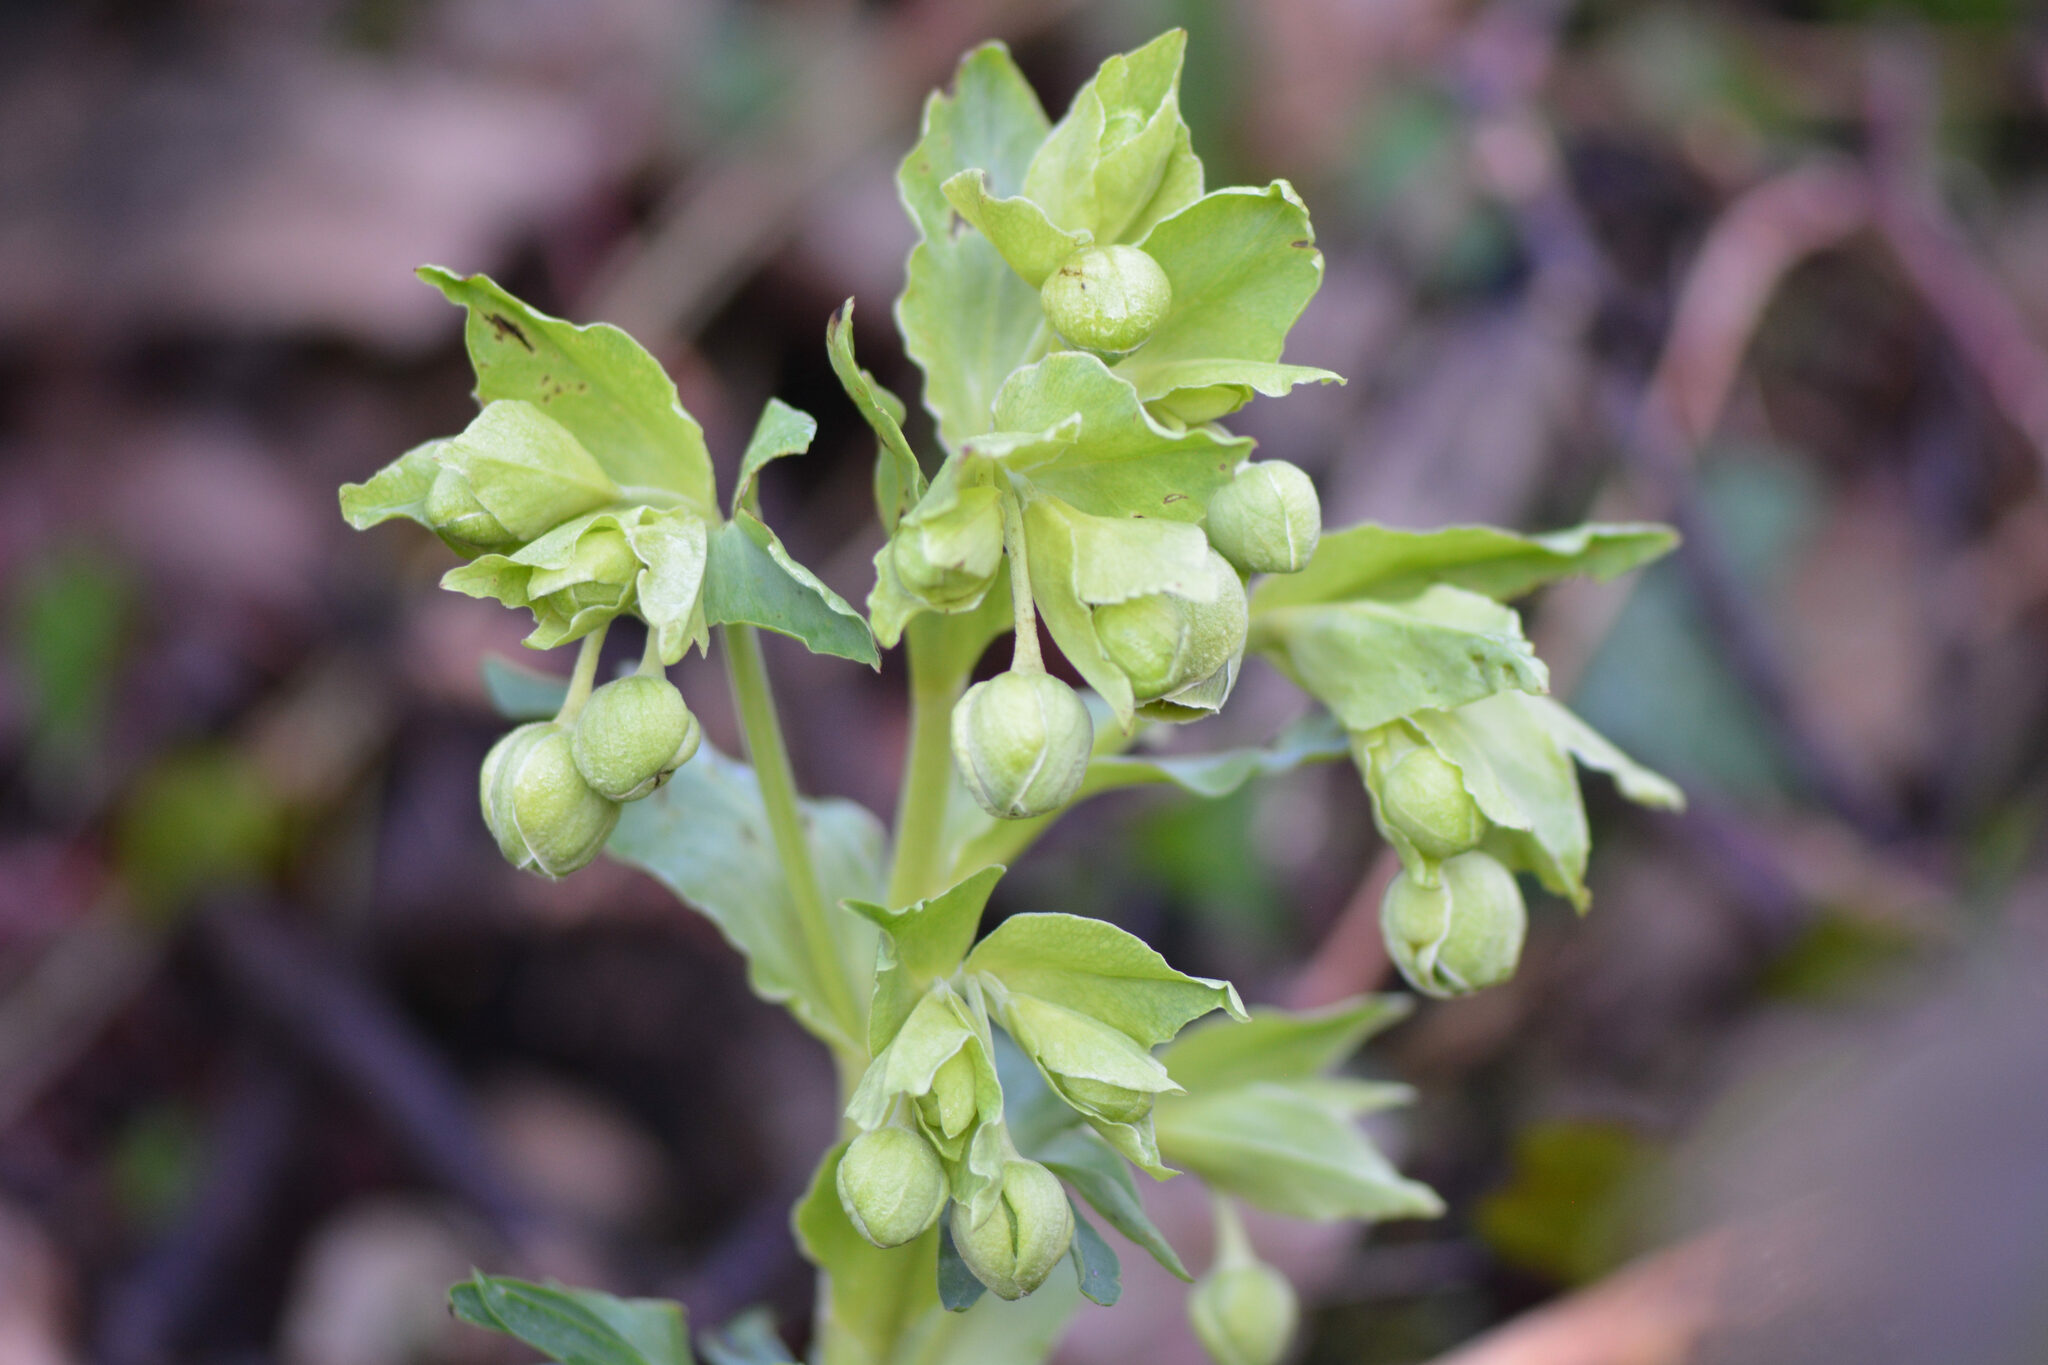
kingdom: Plantae
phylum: Tracheophyta
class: Magnoliopsida
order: Ranunculales
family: Ranunculaceae
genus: Helleborus
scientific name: Helleborus foetidus
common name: Stinking hellebore
